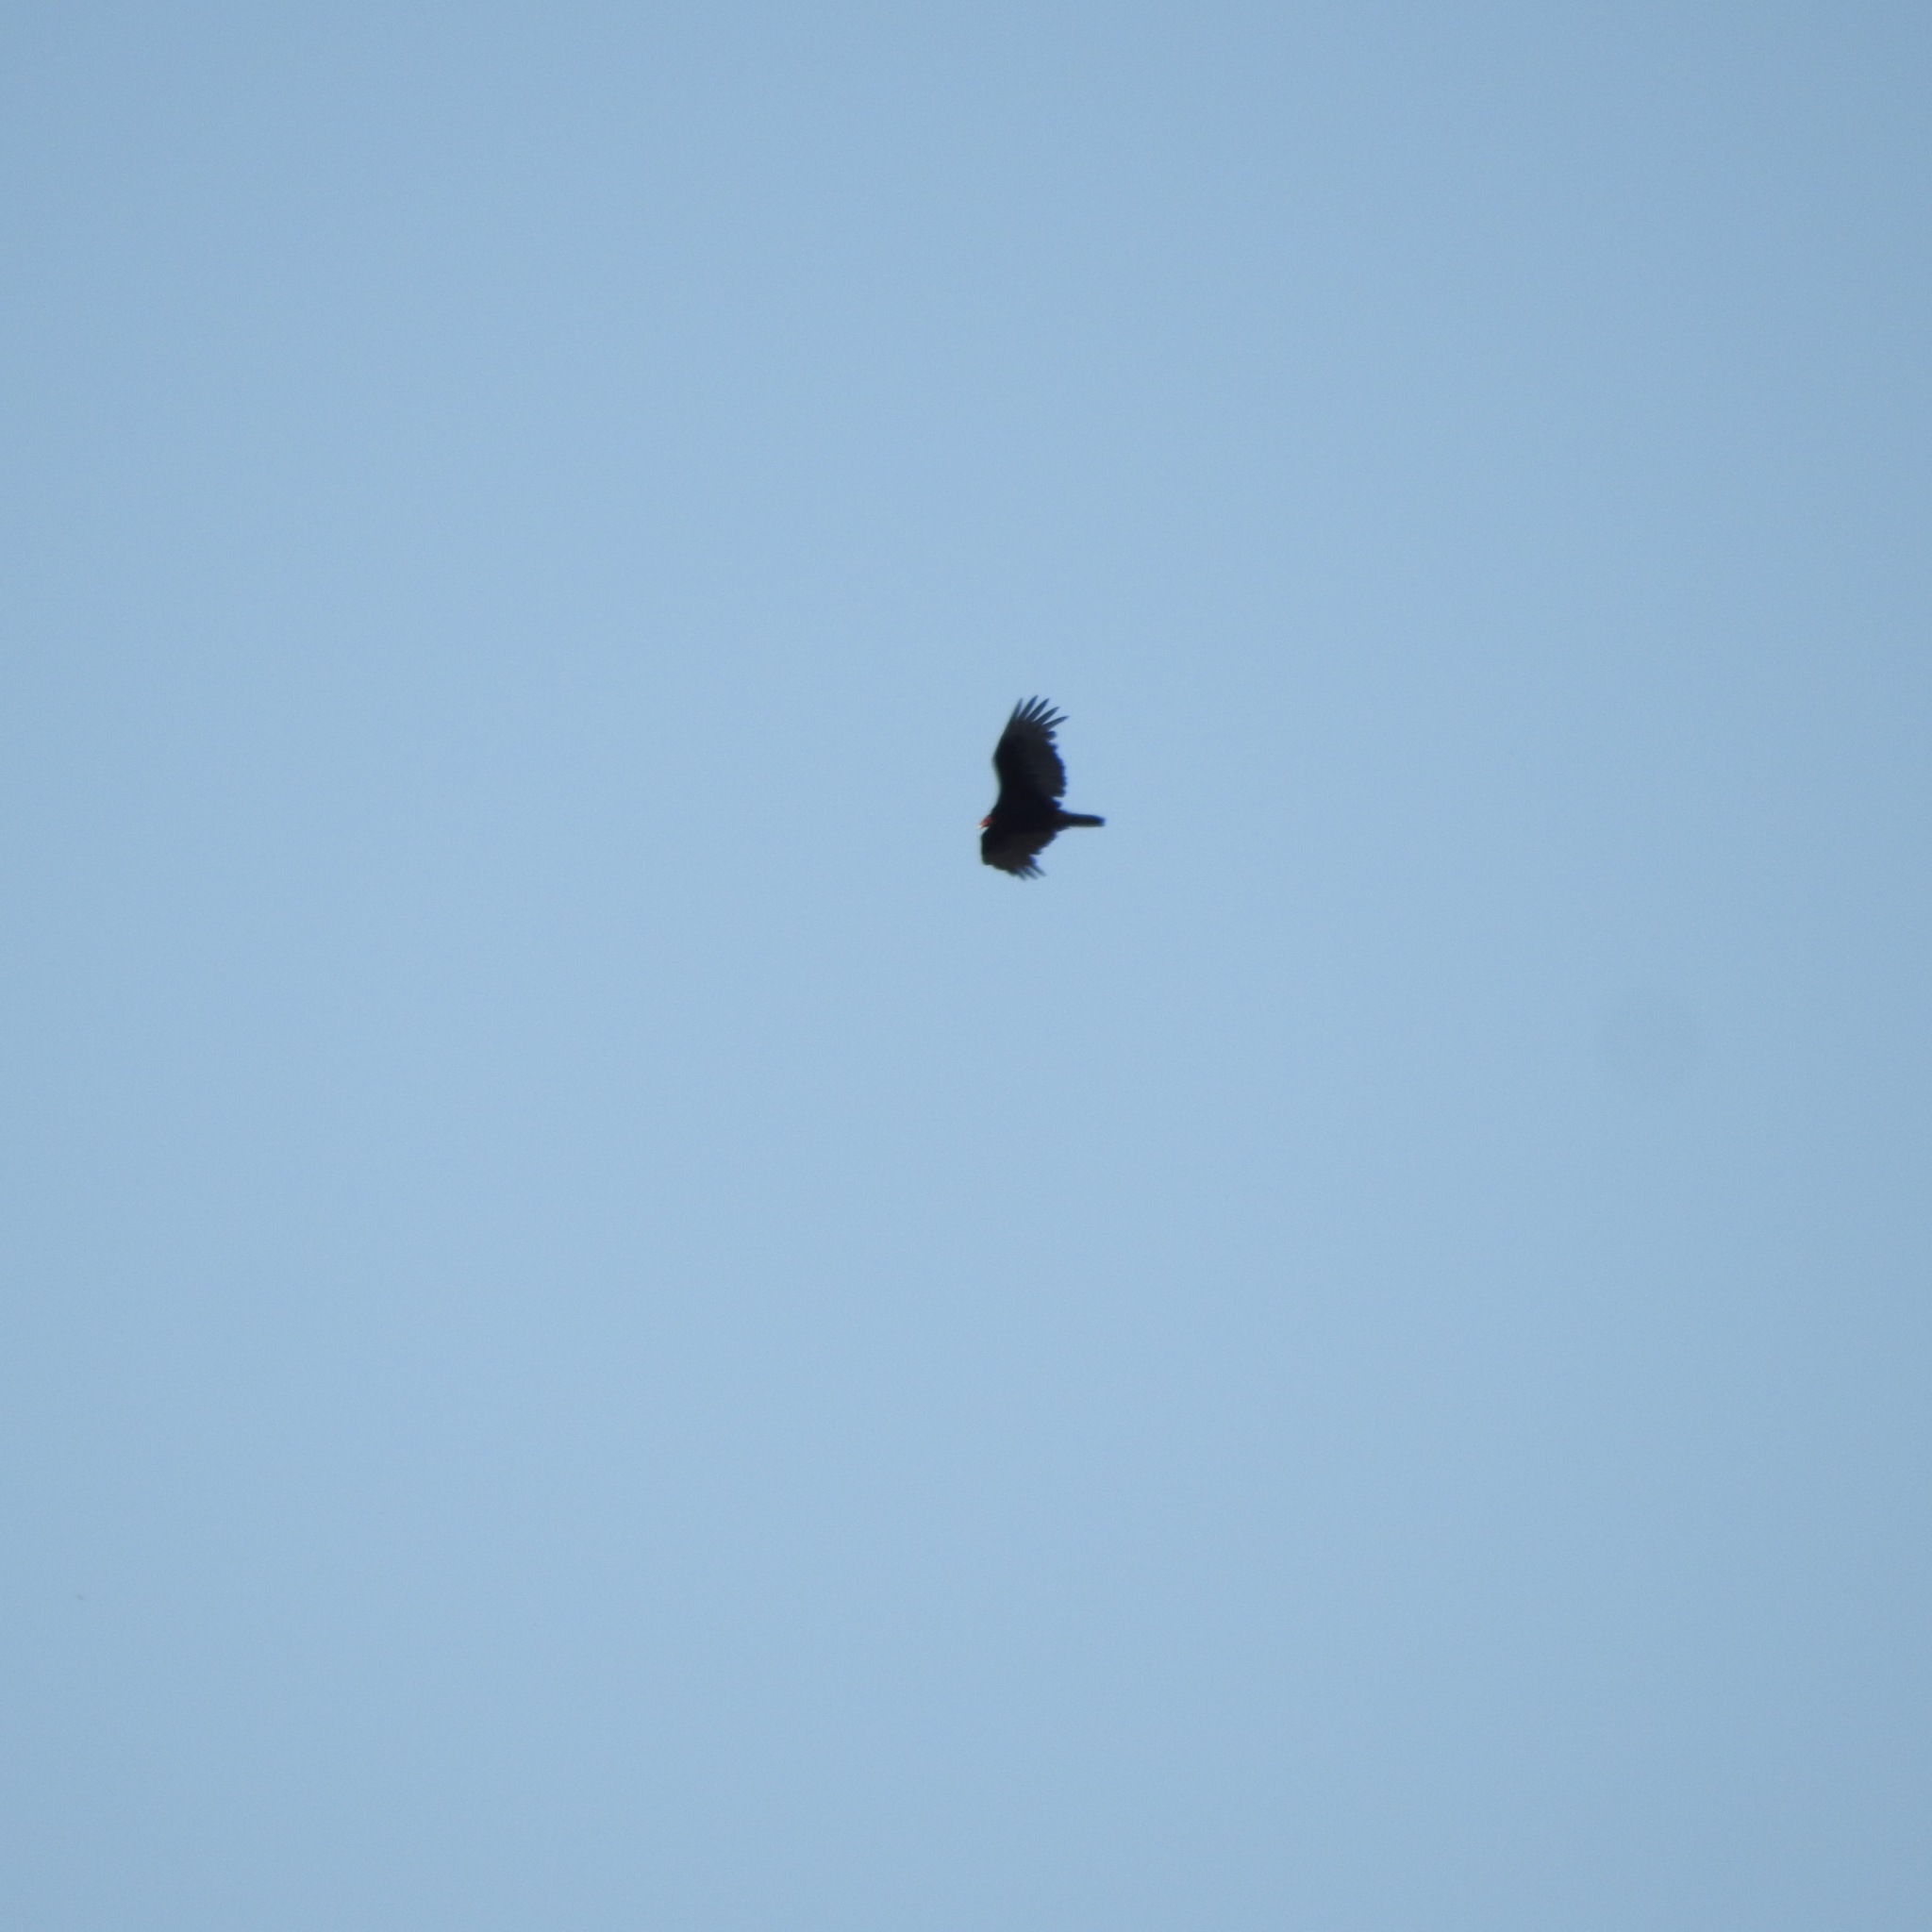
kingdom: Animalia
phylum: Chordata
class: Aves
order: Accipitriformes
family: Cathartidae
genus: Cathartes
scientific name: Cathartes aura
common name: Turkey vulture
